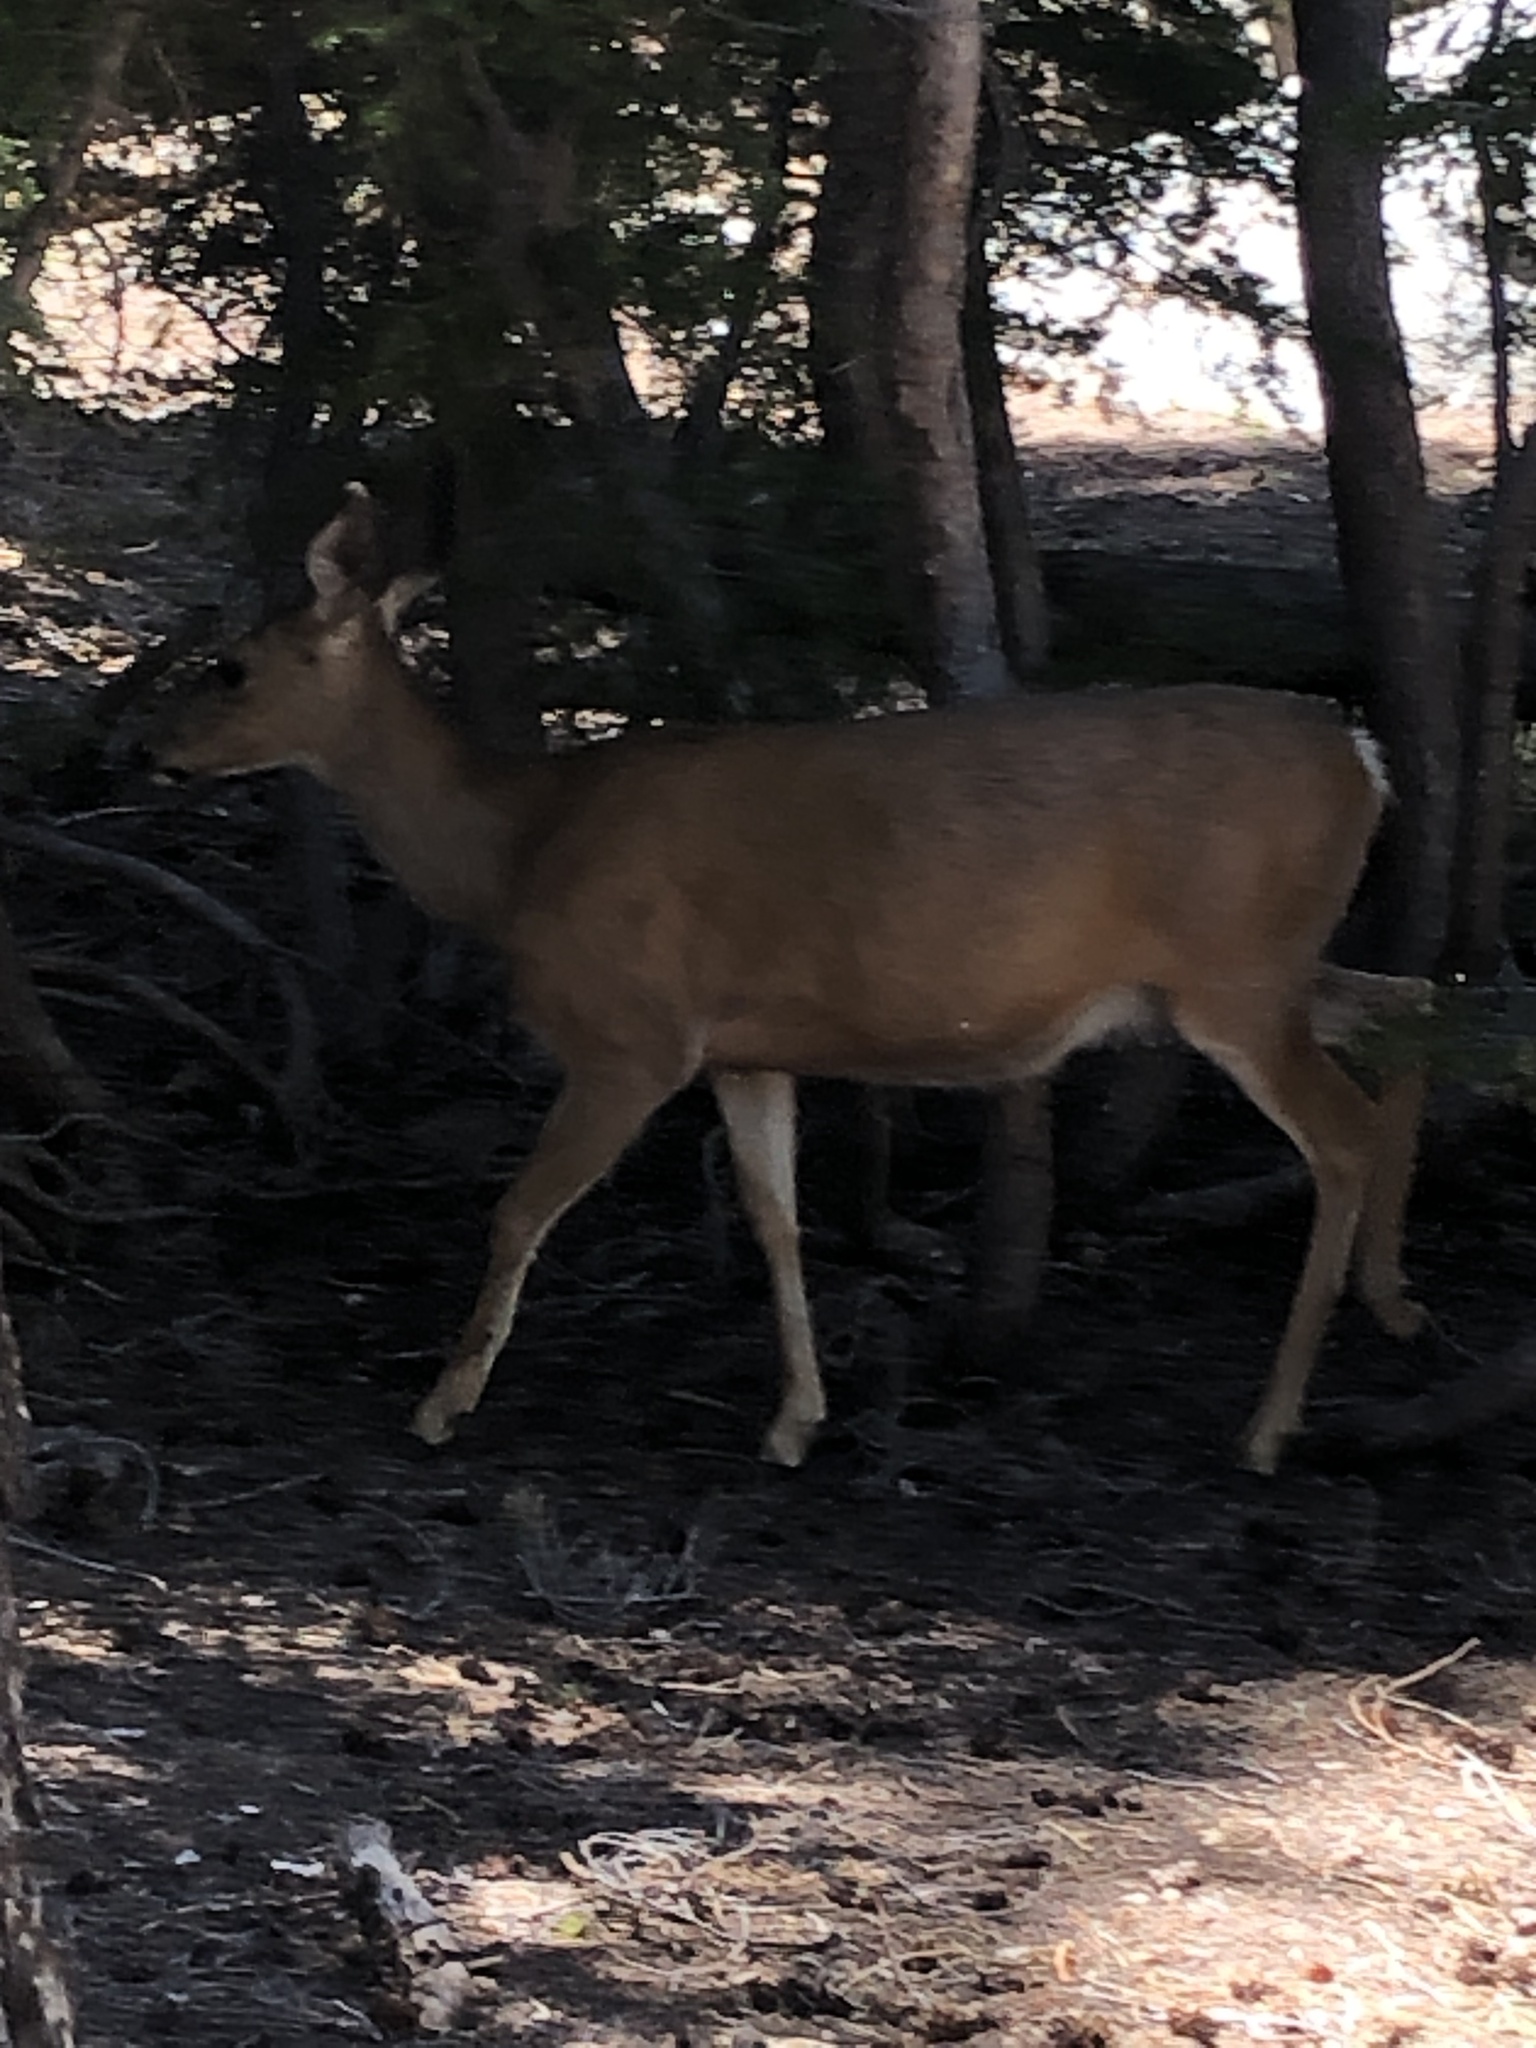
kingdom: Animalia
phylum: Chordata
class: Mammalia
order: Artiodactyla
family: Cervidae
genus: Odocoileus
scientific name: Odocoileus hemionus
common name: Mule deer
